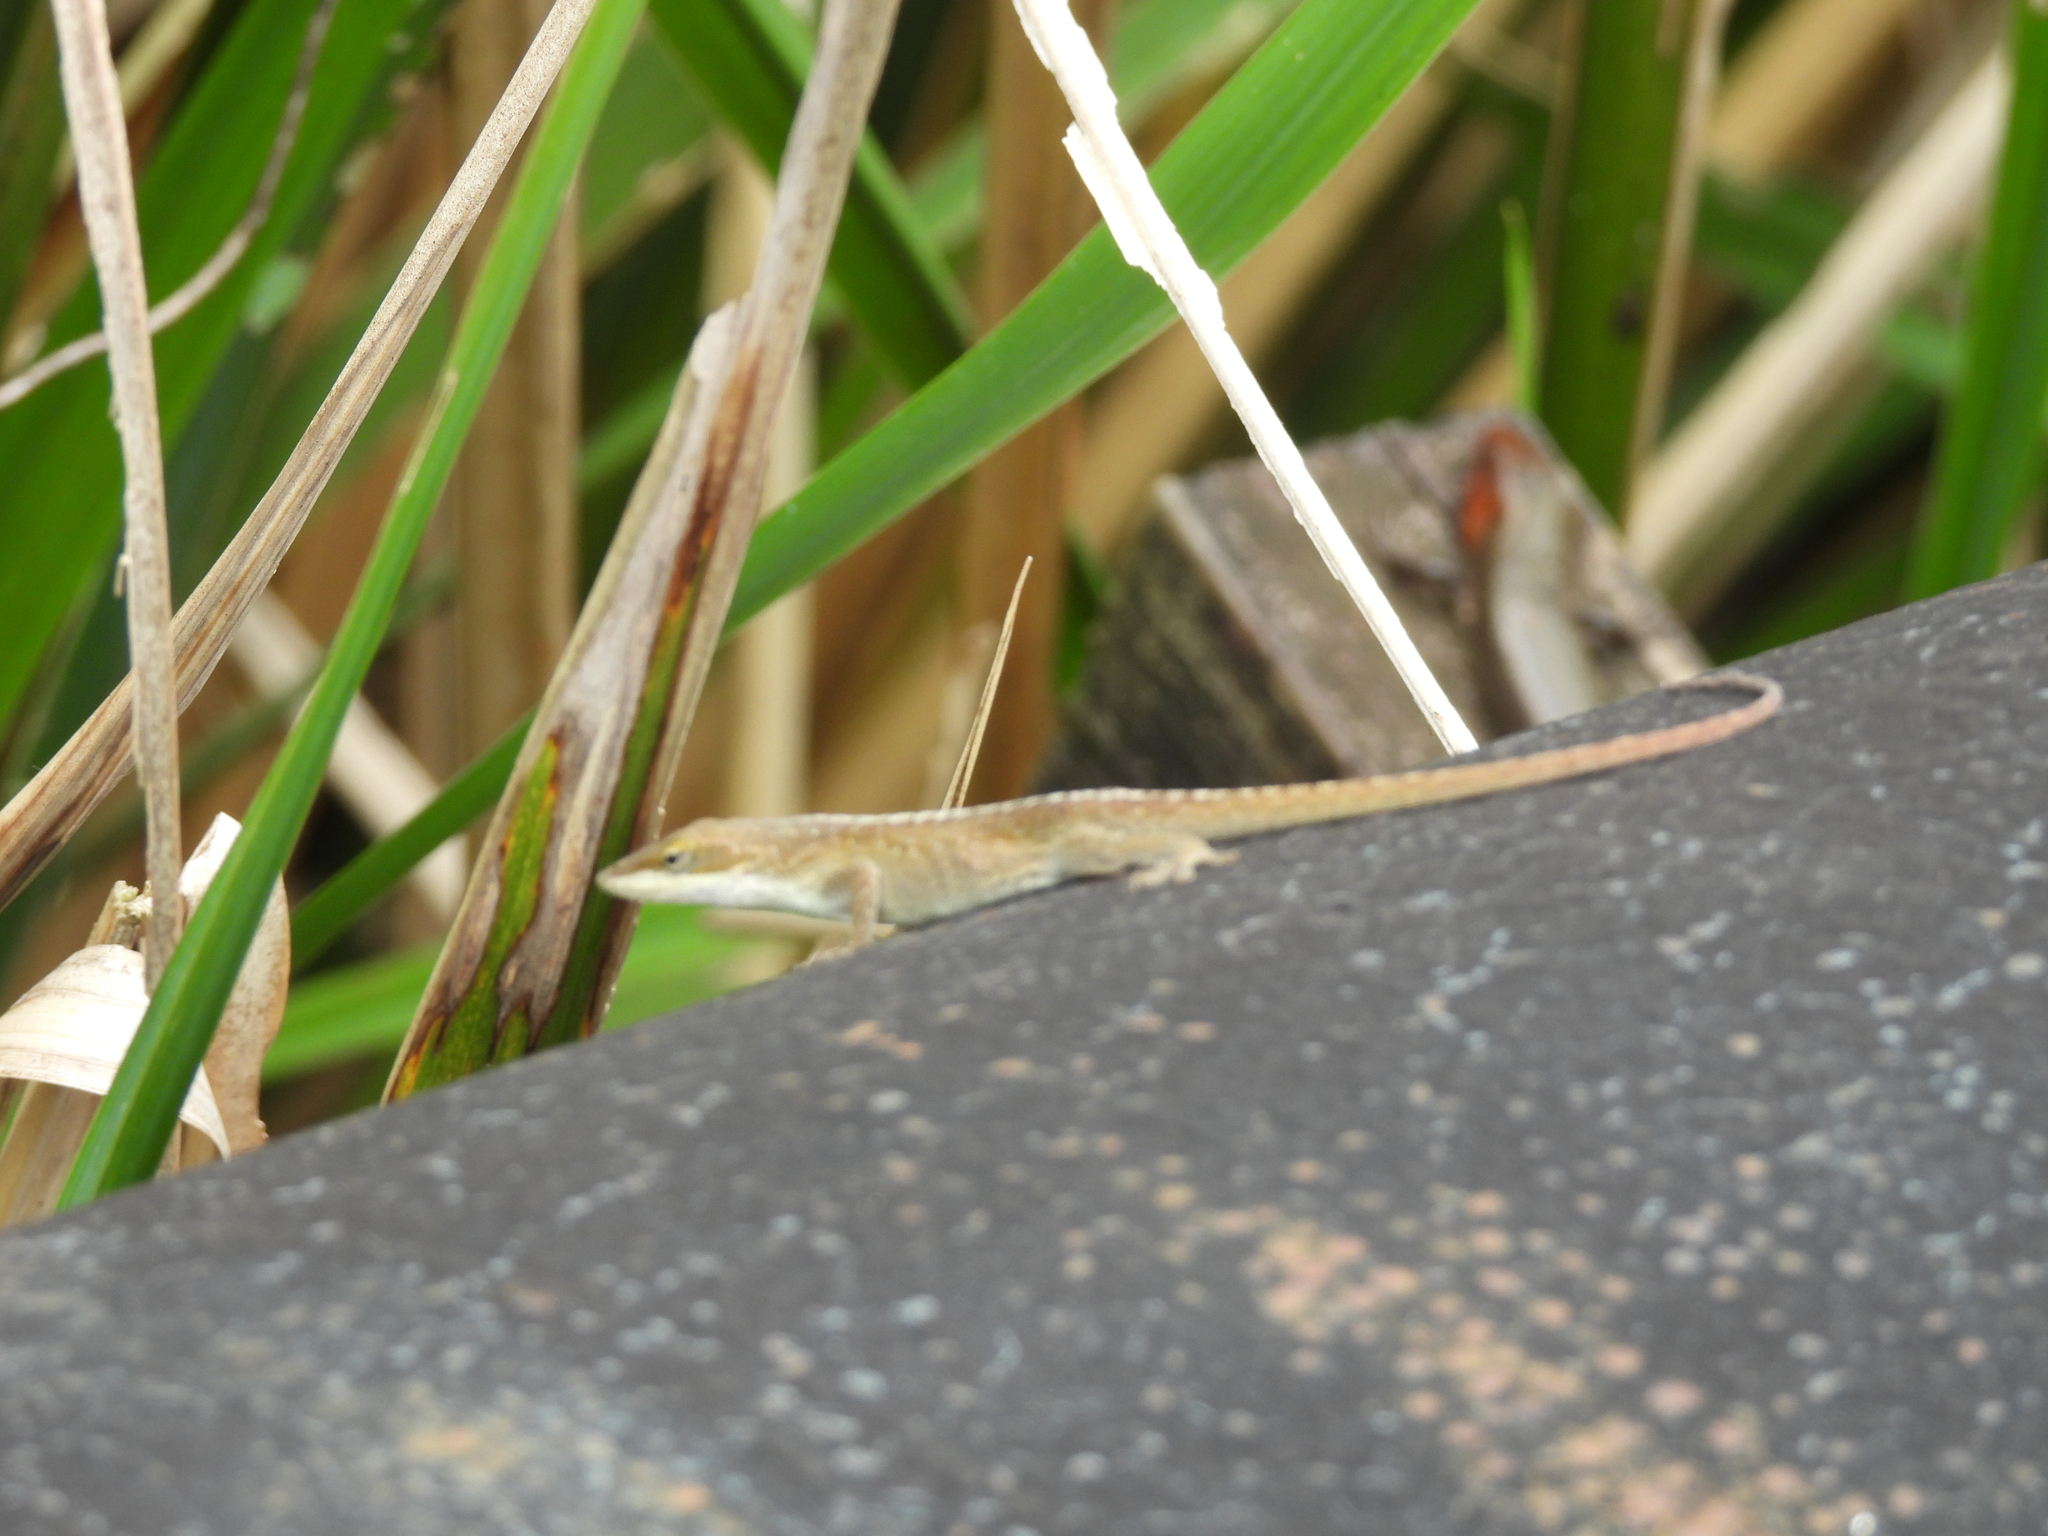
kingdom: Animalia
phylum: Chordata
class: Squamata
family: Dactyloidae
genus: Anolis
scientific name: Anolis carolinensis
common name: Green anole
